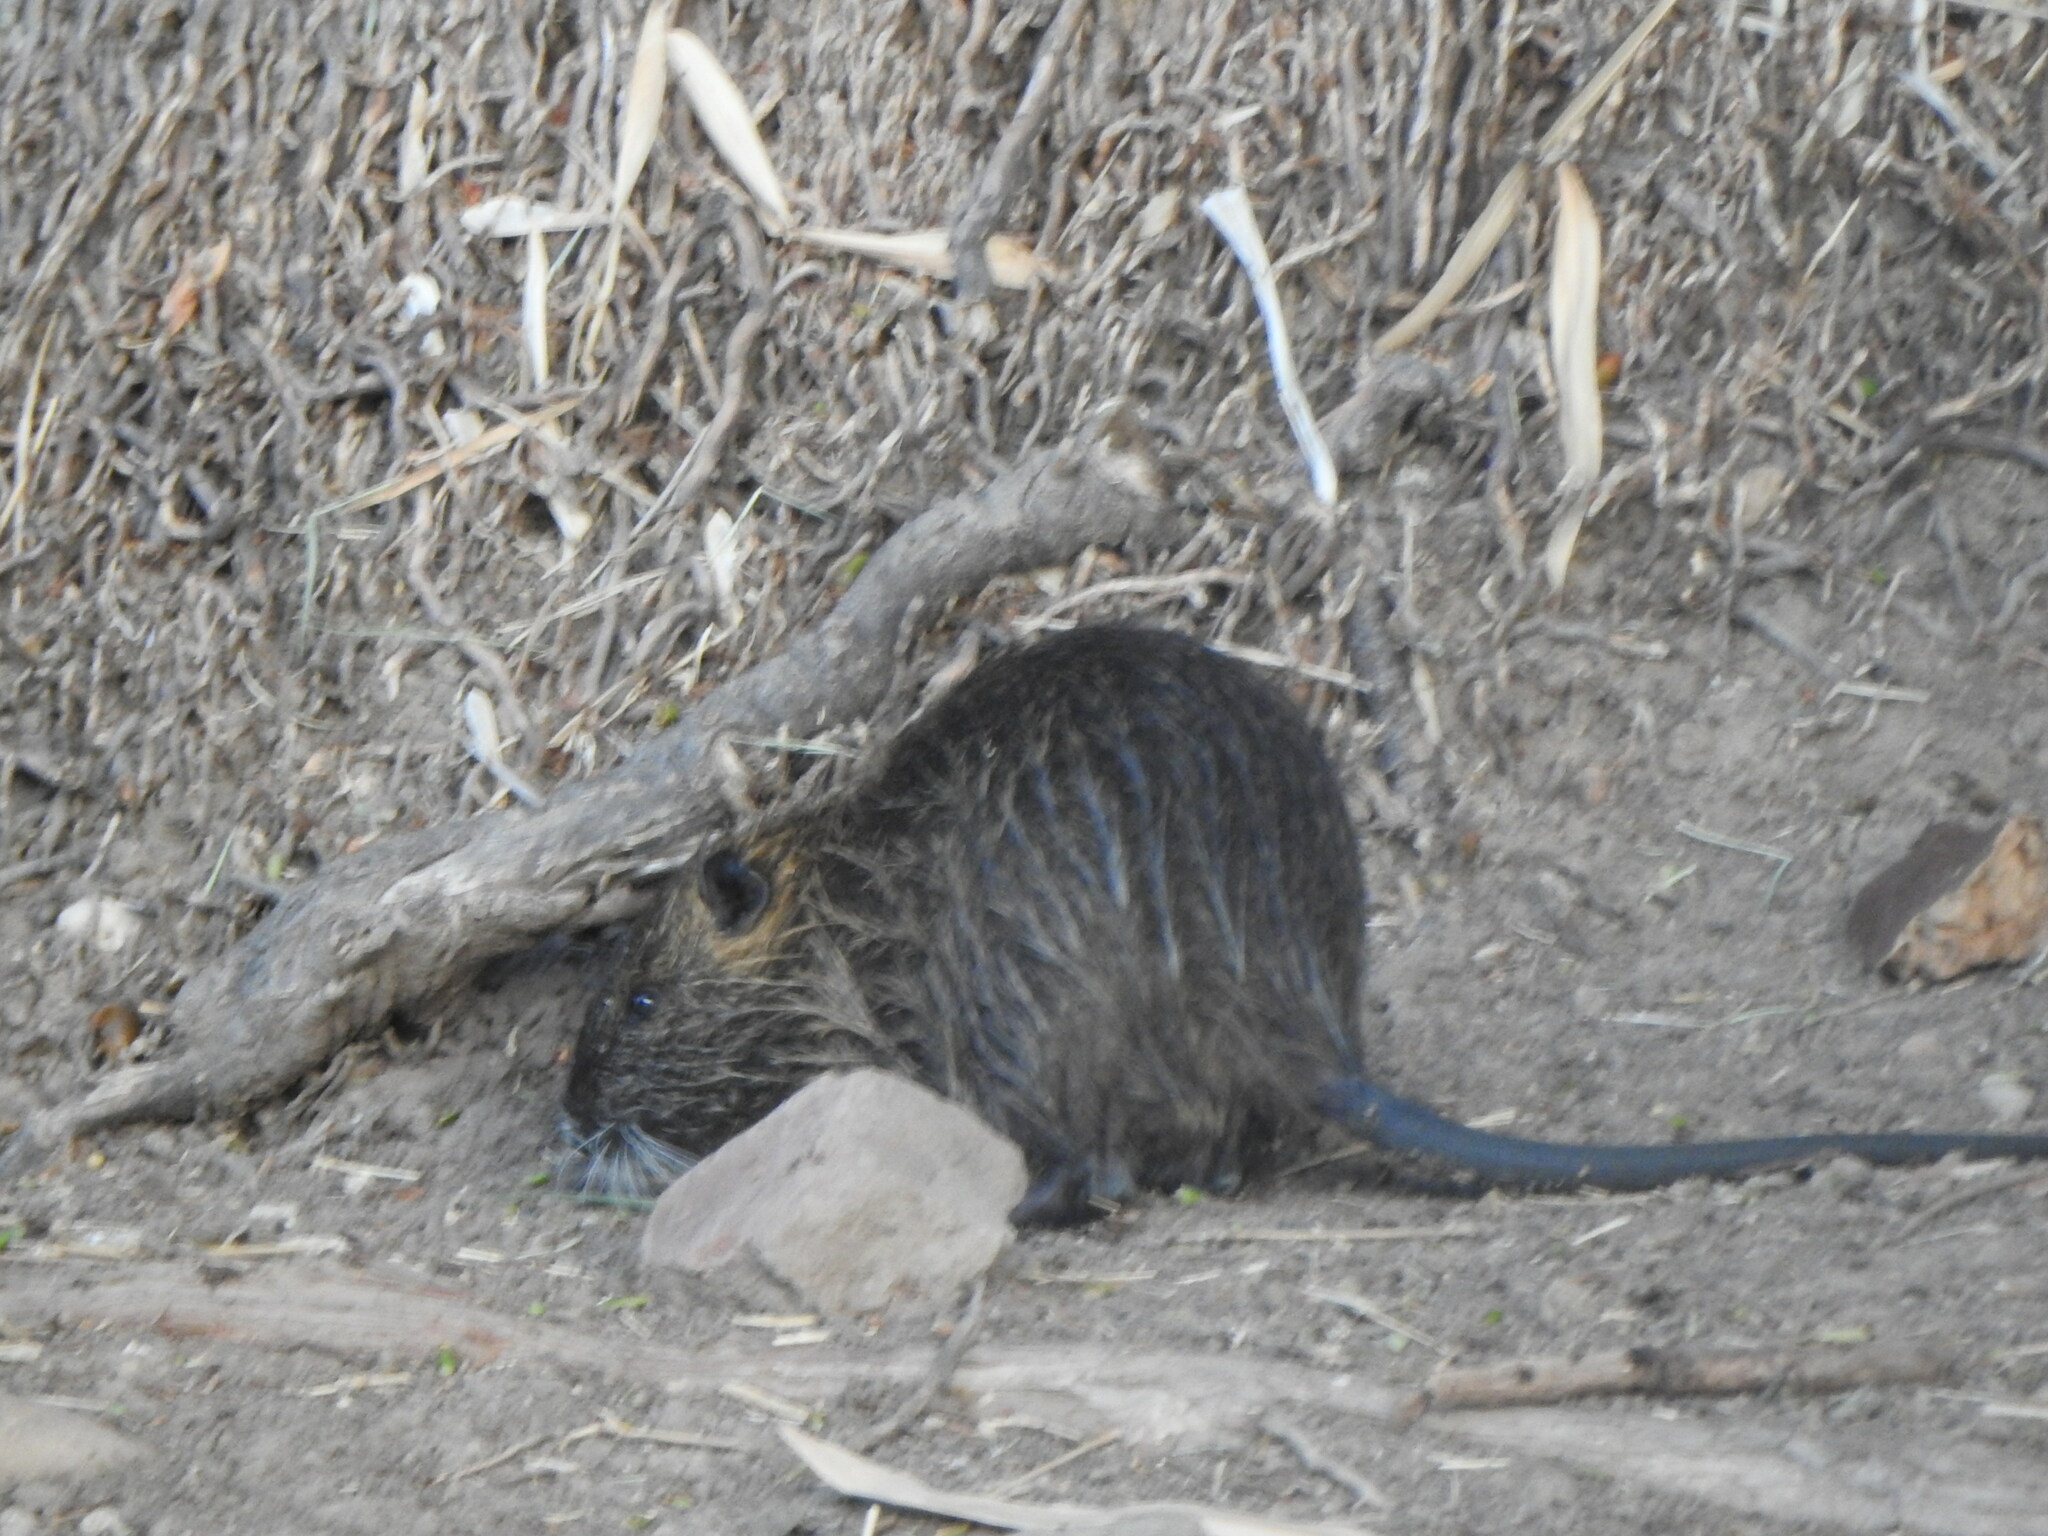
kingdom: Animalia
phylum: Chordata
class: Mammalia
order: Rodentia
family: Myocastoridae
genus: Myocastor
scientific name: Myocastor coypus
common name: Coypu
